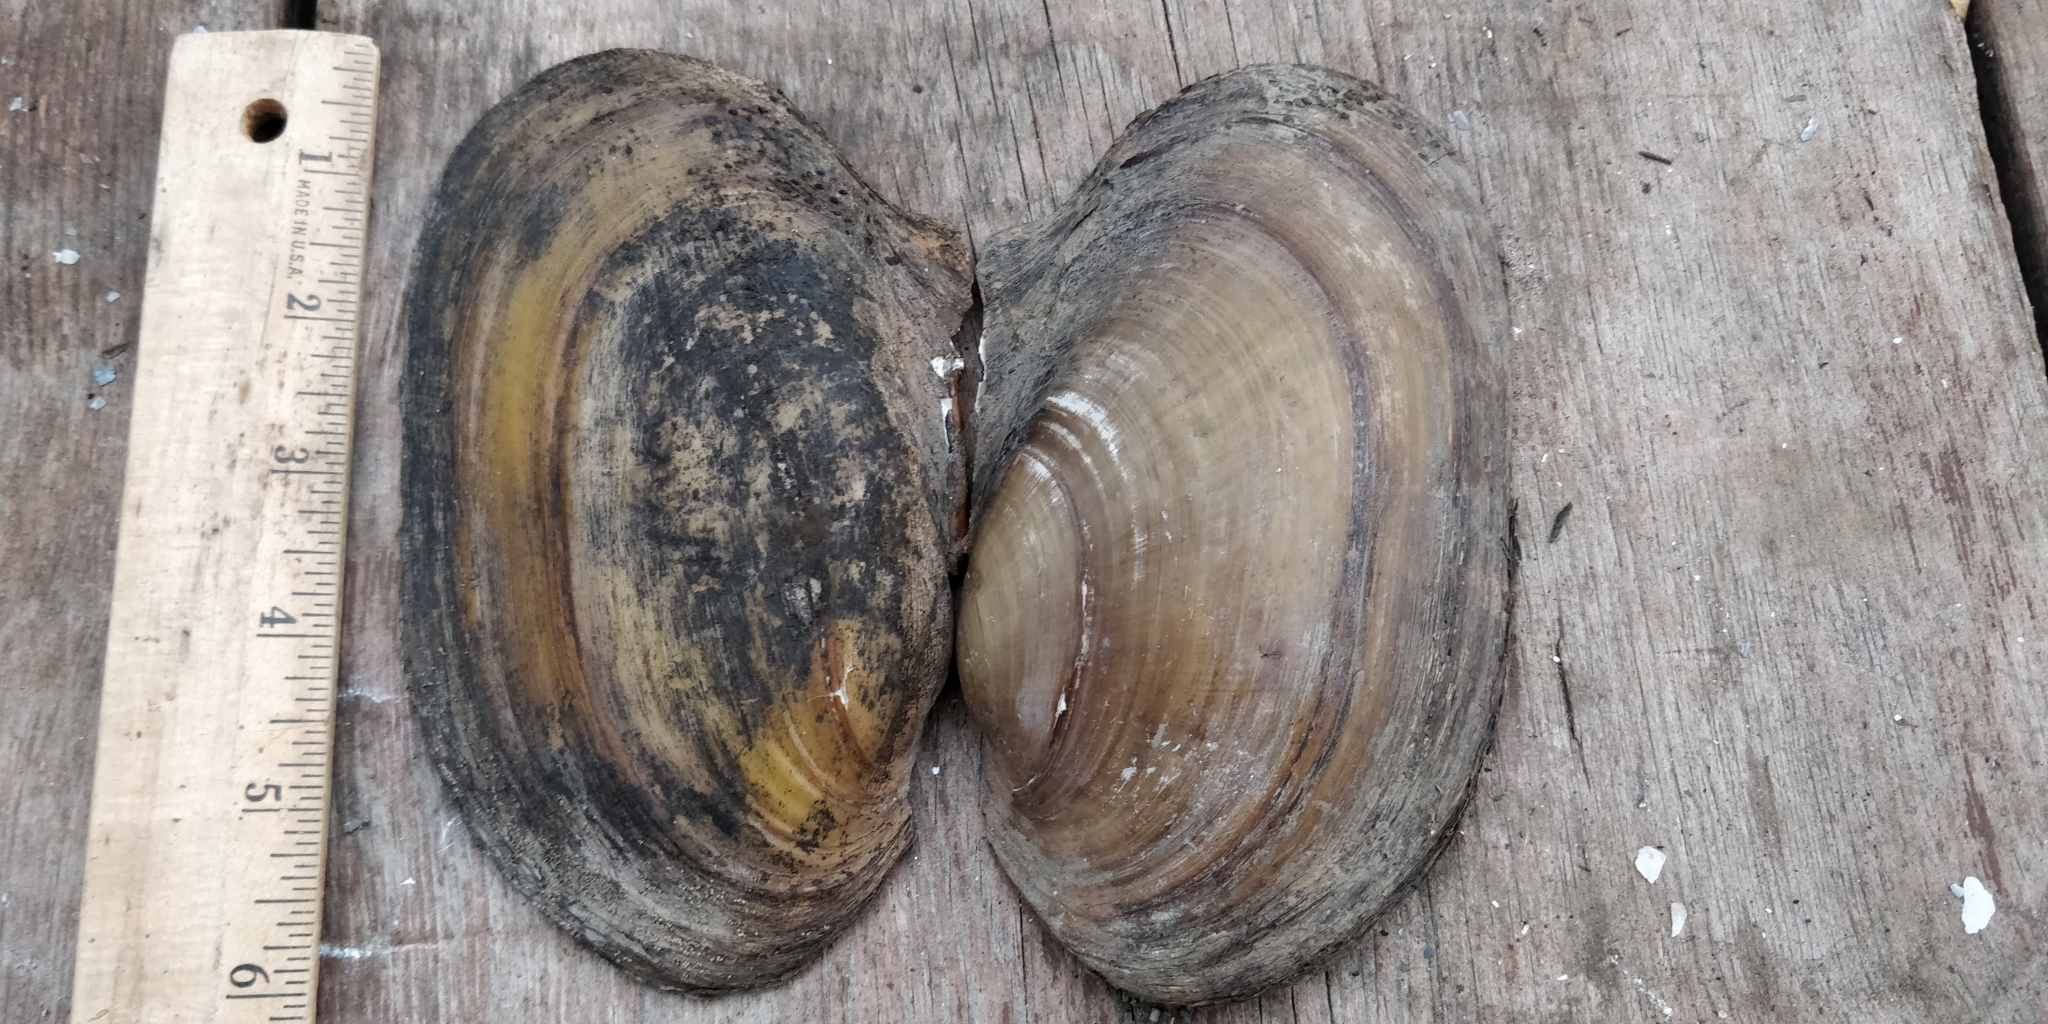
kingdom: Animalia
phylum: Mollusca
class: Bivalvia
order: Unionida
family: Unionidae
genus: Potamilus
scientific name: Potamilus fragilis
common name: Fragile papershell
